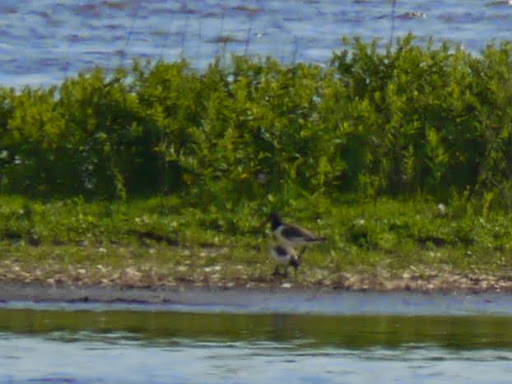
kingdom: Animalia
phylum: Chordata
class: Aves
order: Charadriiformes
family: Haematopodidae
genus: Haematopus
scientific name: Haematopus palliatus
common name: American oystercatcher
